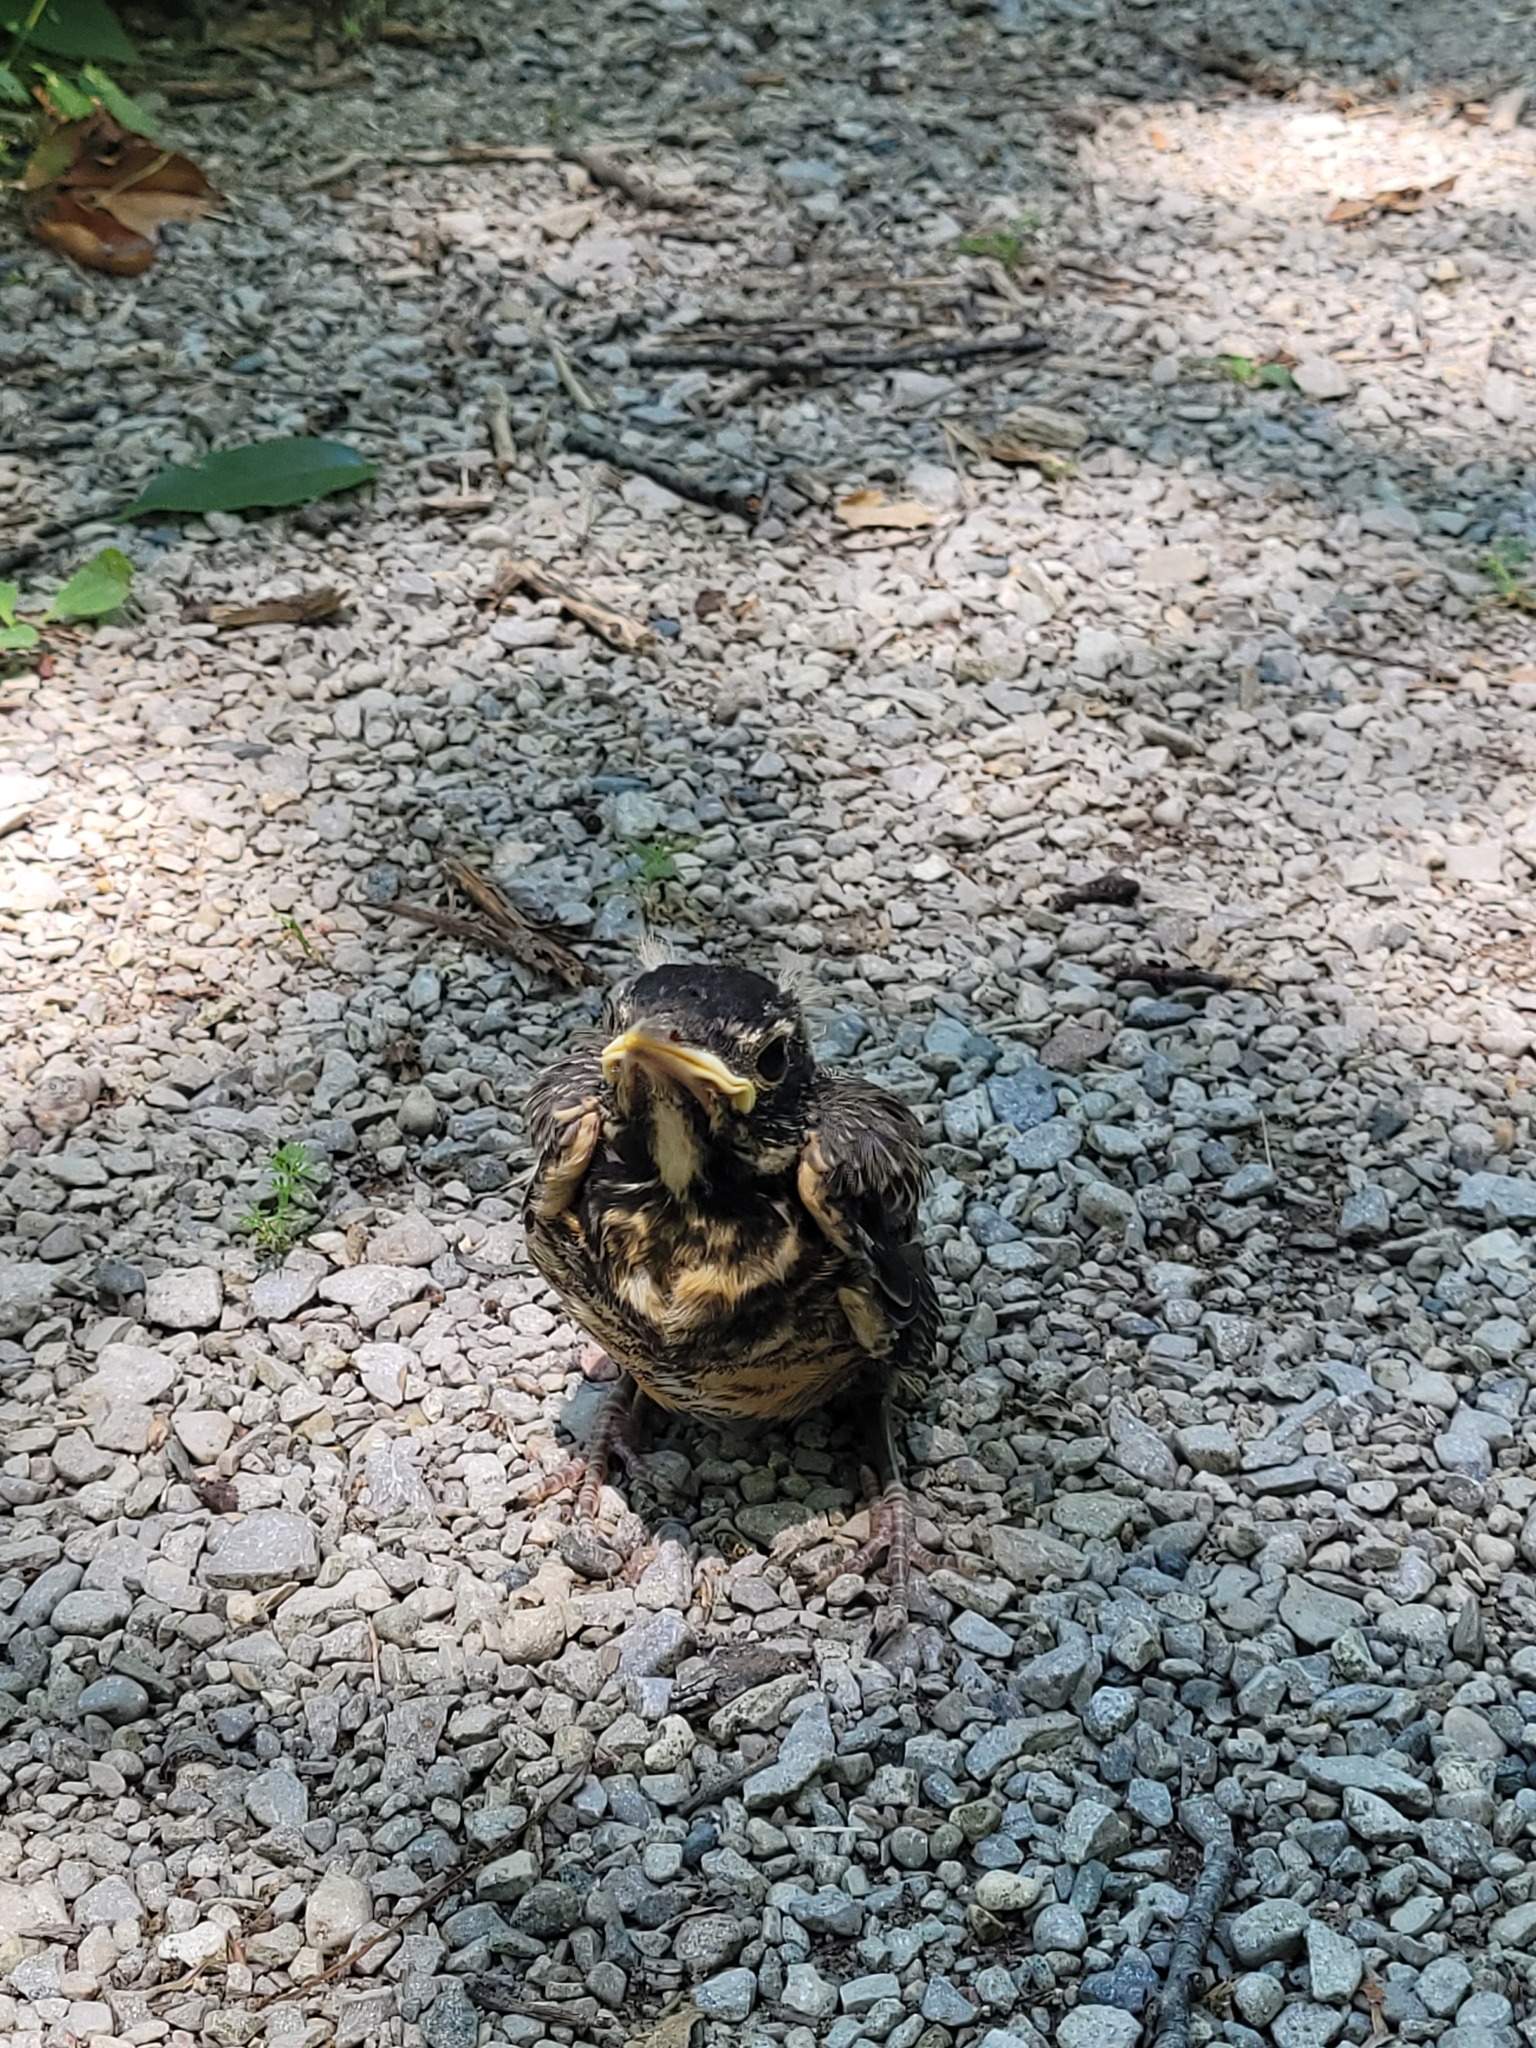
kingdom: Animalia
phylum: Chordata
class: Aves
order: Passeriformes
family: Turdidae
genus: Turdus
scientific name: Turdus migratorius
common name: American robin
